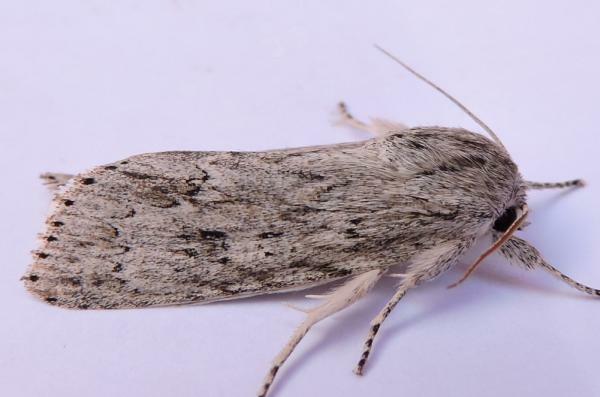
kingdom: Animalia
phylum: Arthropoda
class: Insecta
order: Lepidoptera
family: Noctuidae
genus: Acronicta
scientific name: Acronicta oblinita
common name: Smeared dagger
